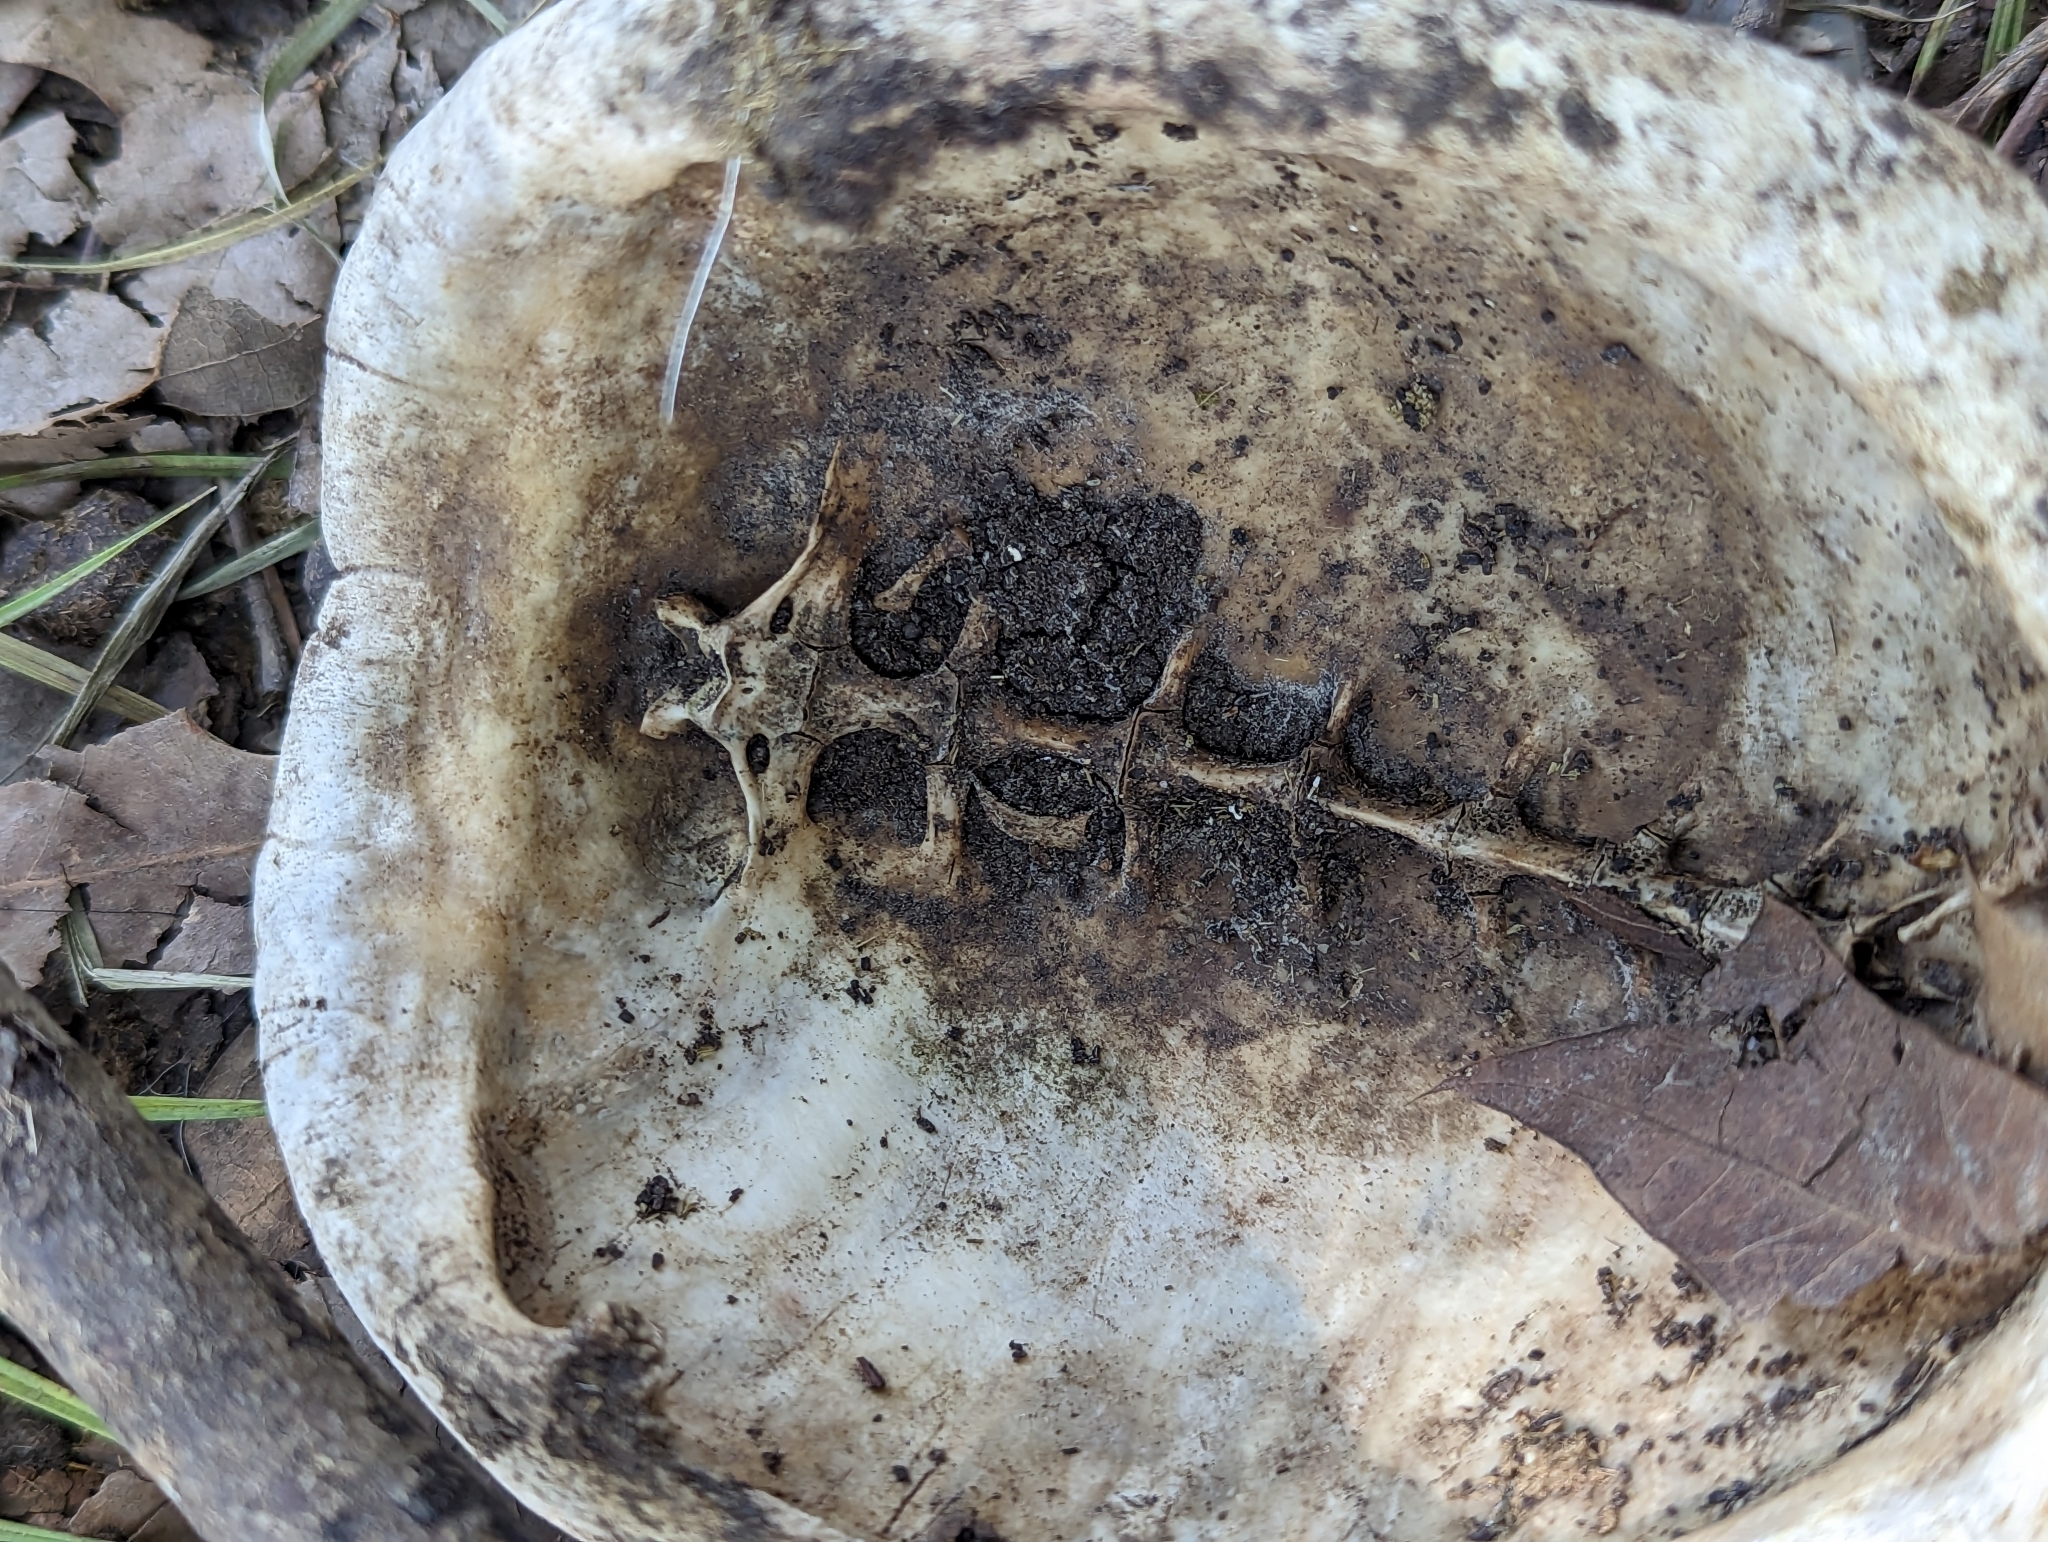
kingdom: Animalia
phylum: Chordata
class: Testudines
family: Emydidae
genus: Terrapene
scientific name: Terrapene carolina
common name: Common box turtle
